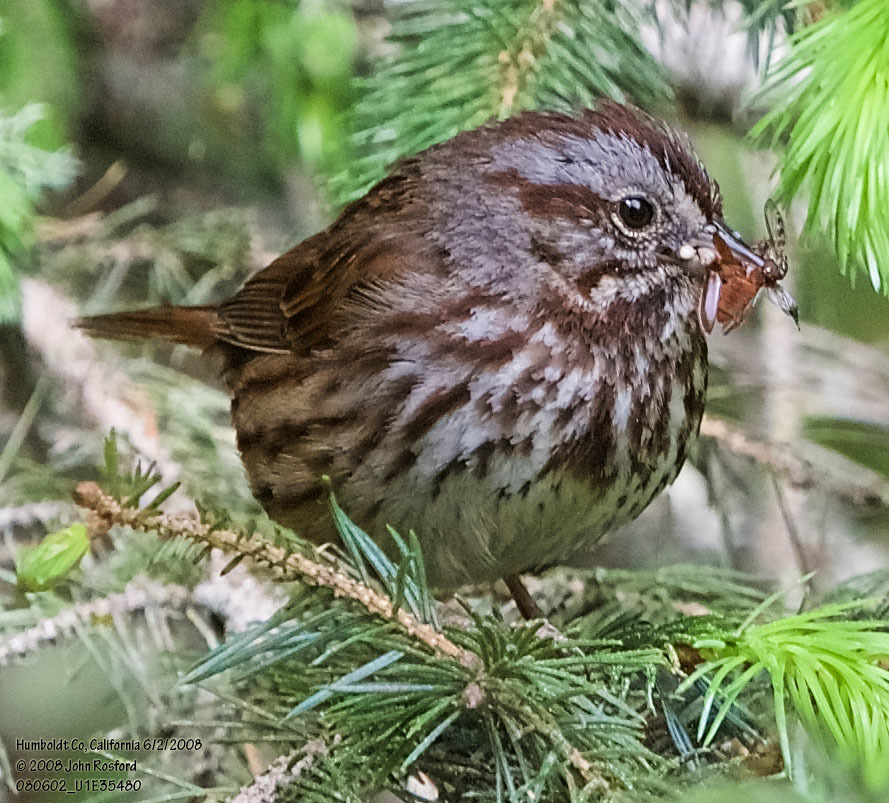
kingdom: Animalia
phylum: Chordata
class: Aves
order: Passeriformes
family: Passerellidae
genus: Melospiza
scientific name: Melospiza melodia
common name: Song sparrow
